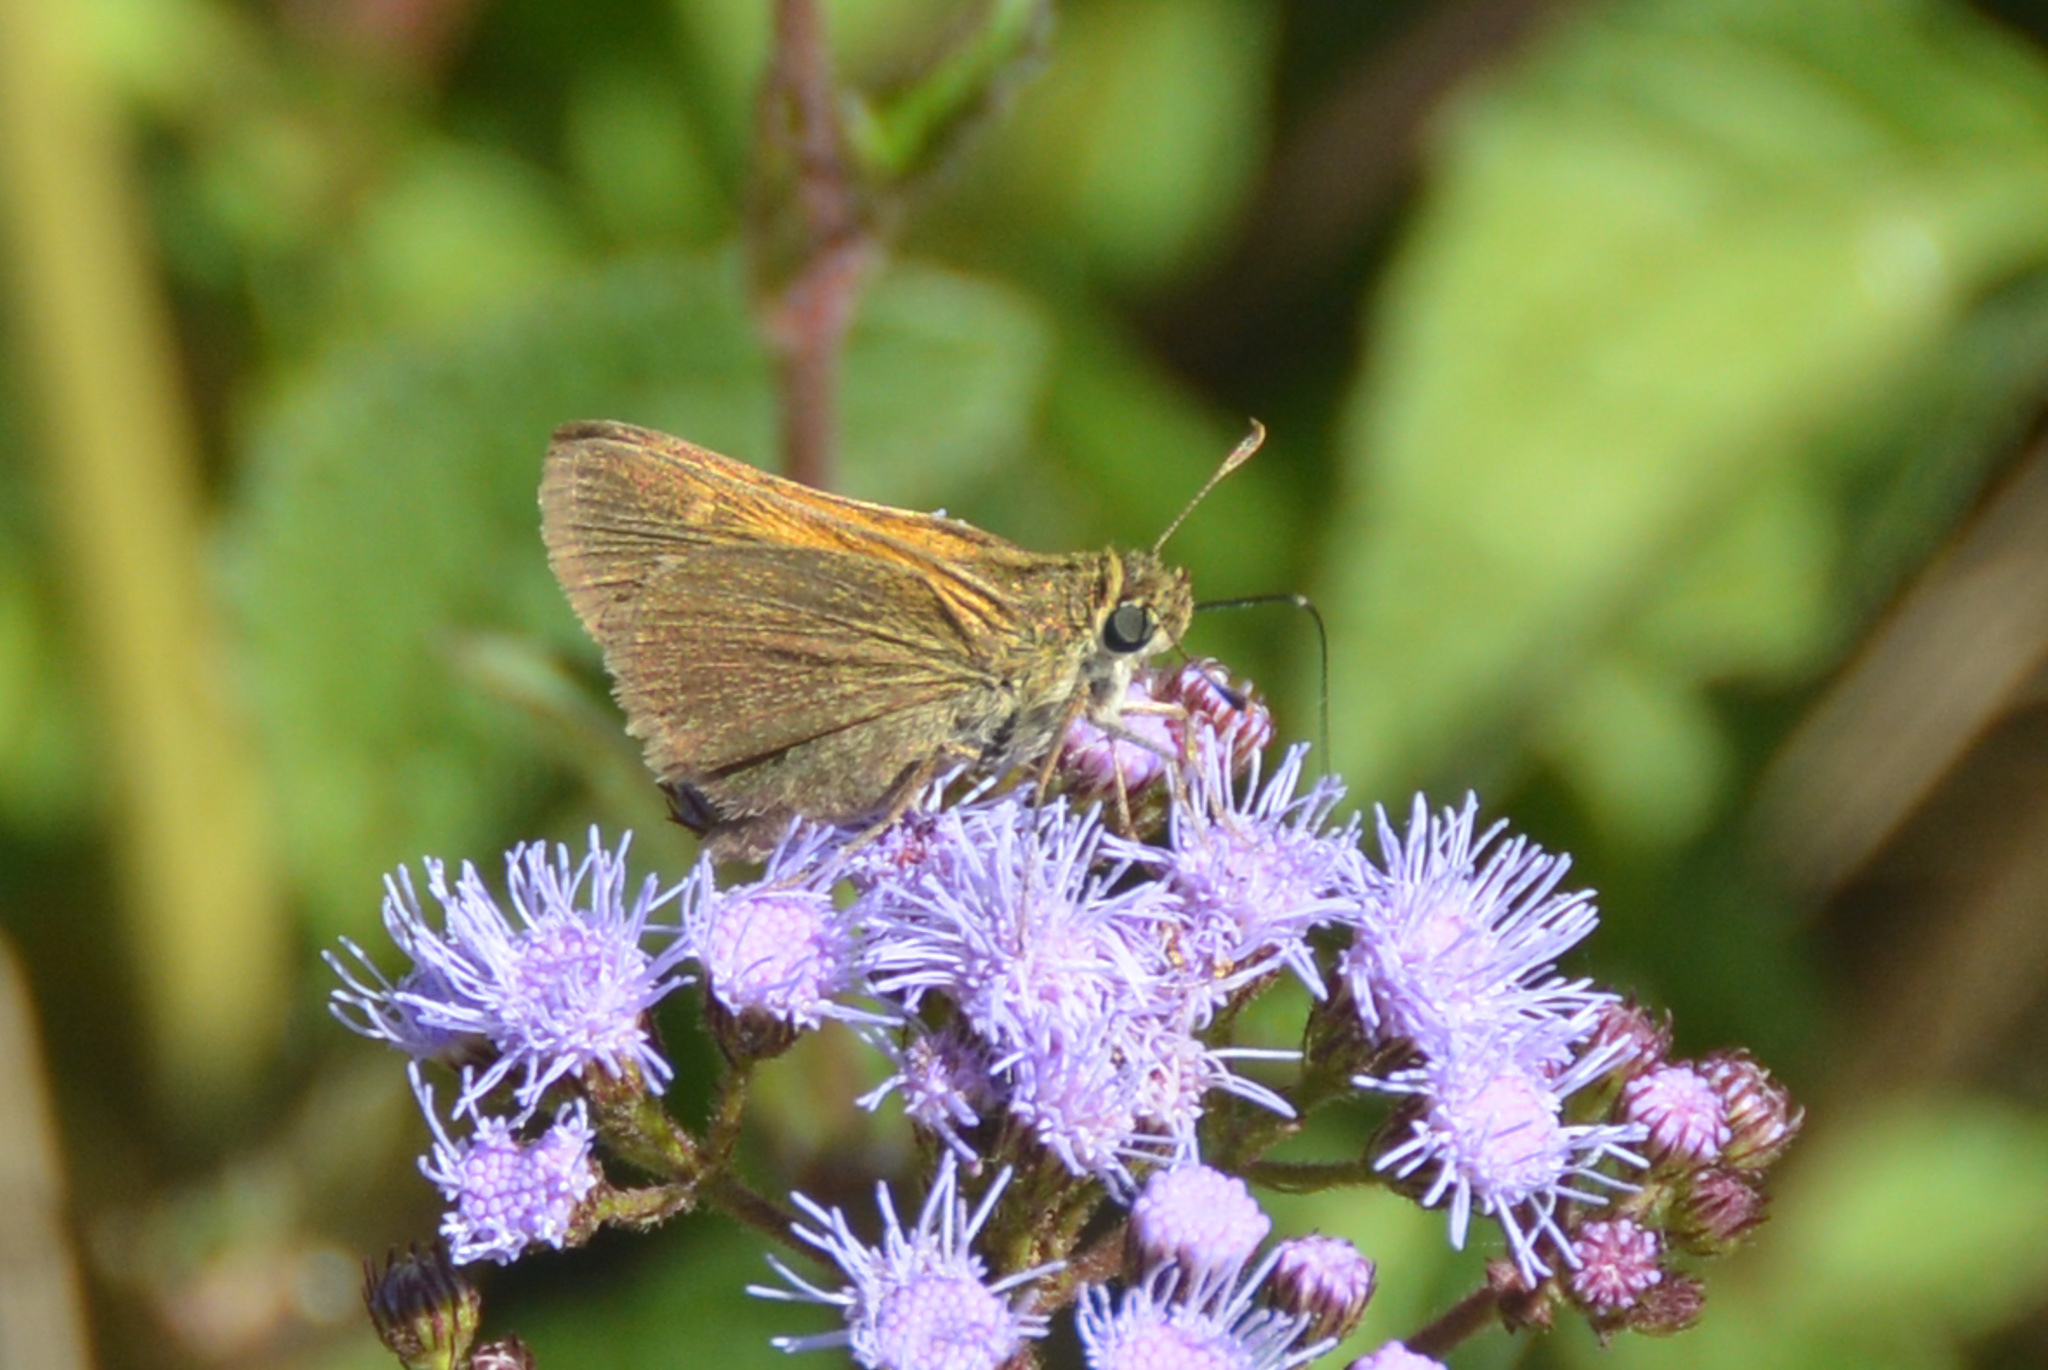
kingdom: Animalia
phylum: Arthropoda
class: Insecta
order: Lepidoptera
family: Hesperiidae
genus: Polites
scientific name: Polites themistocles
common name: Tawny-edged skipper
